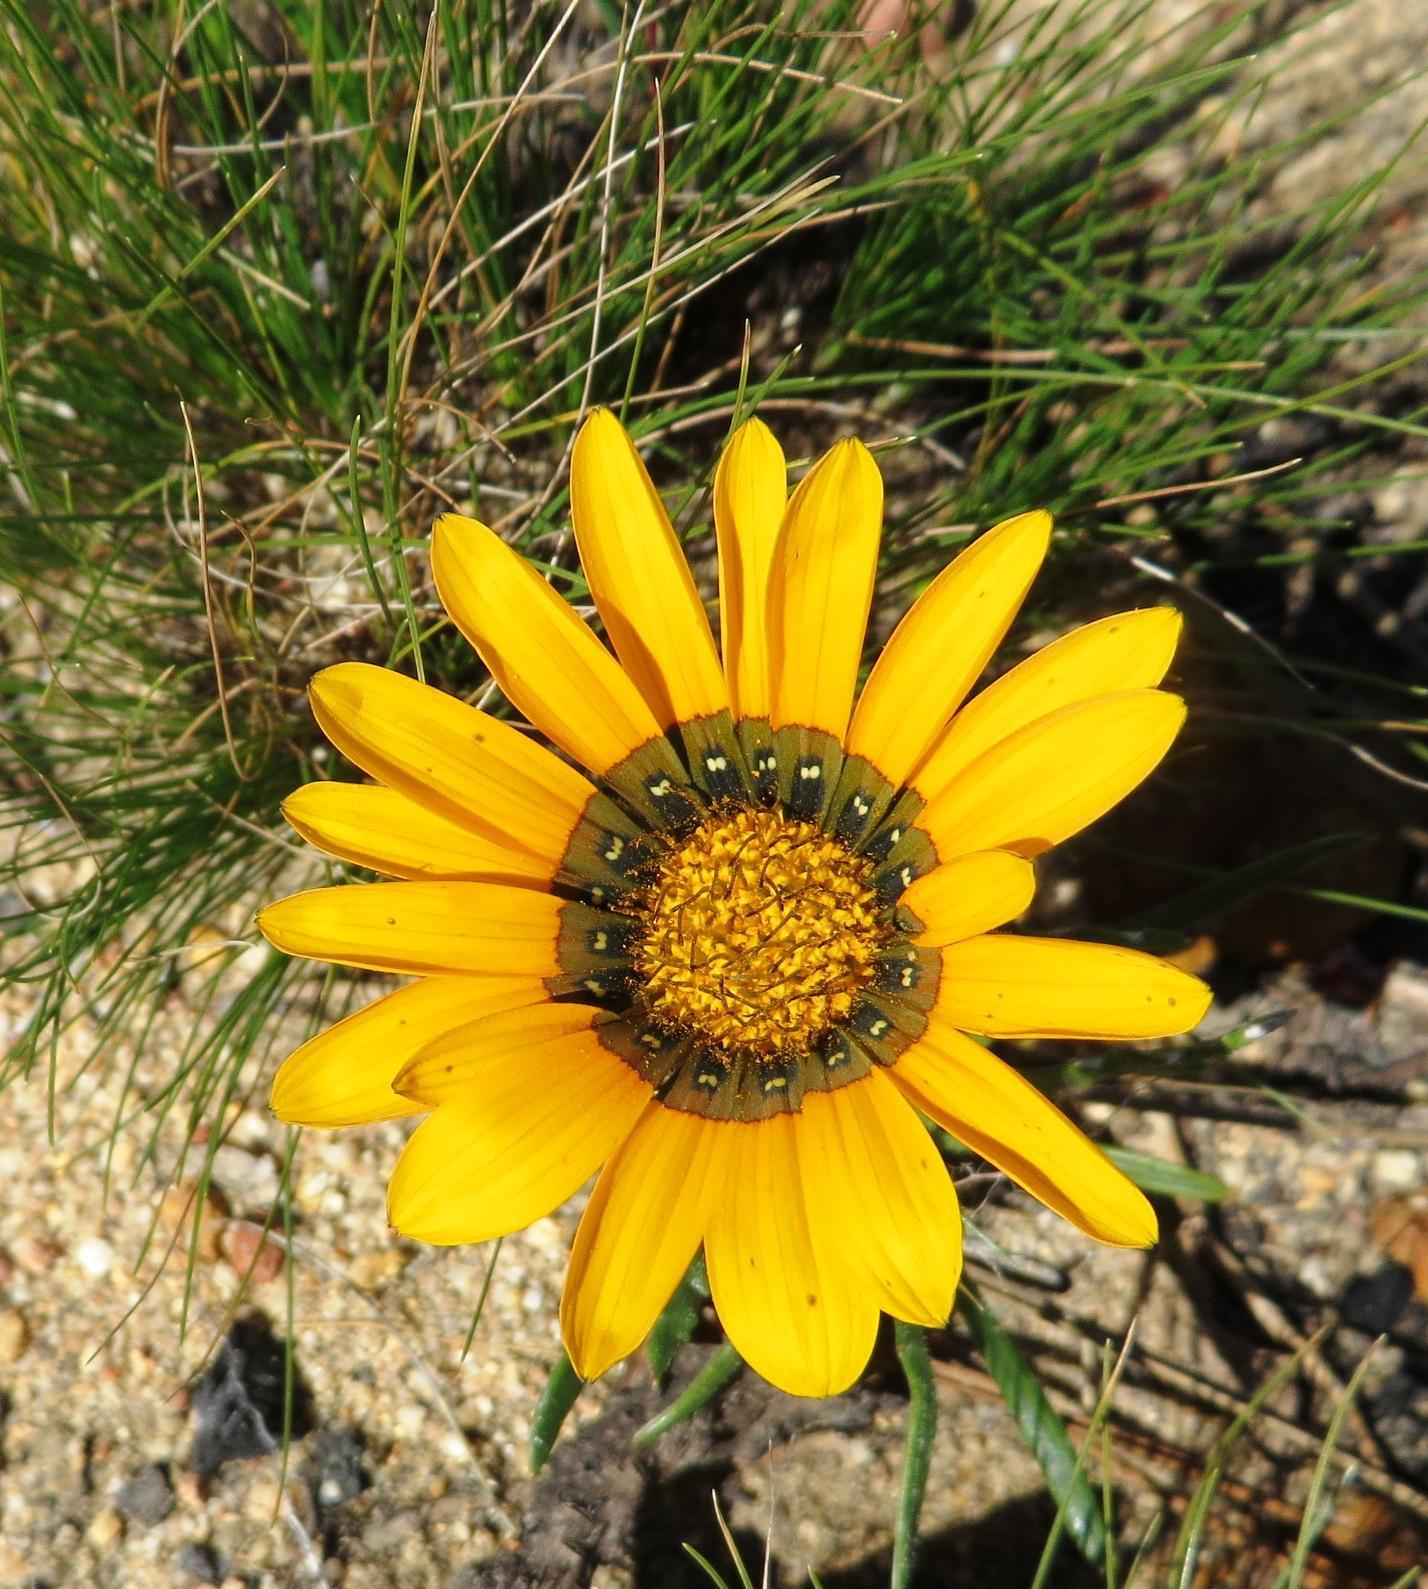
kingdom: Plantae
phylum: Tracheophyta
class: Magnoliopsida
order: Asterales
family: Asteraceae
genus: Gazania
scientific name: Gazania ciliaris
